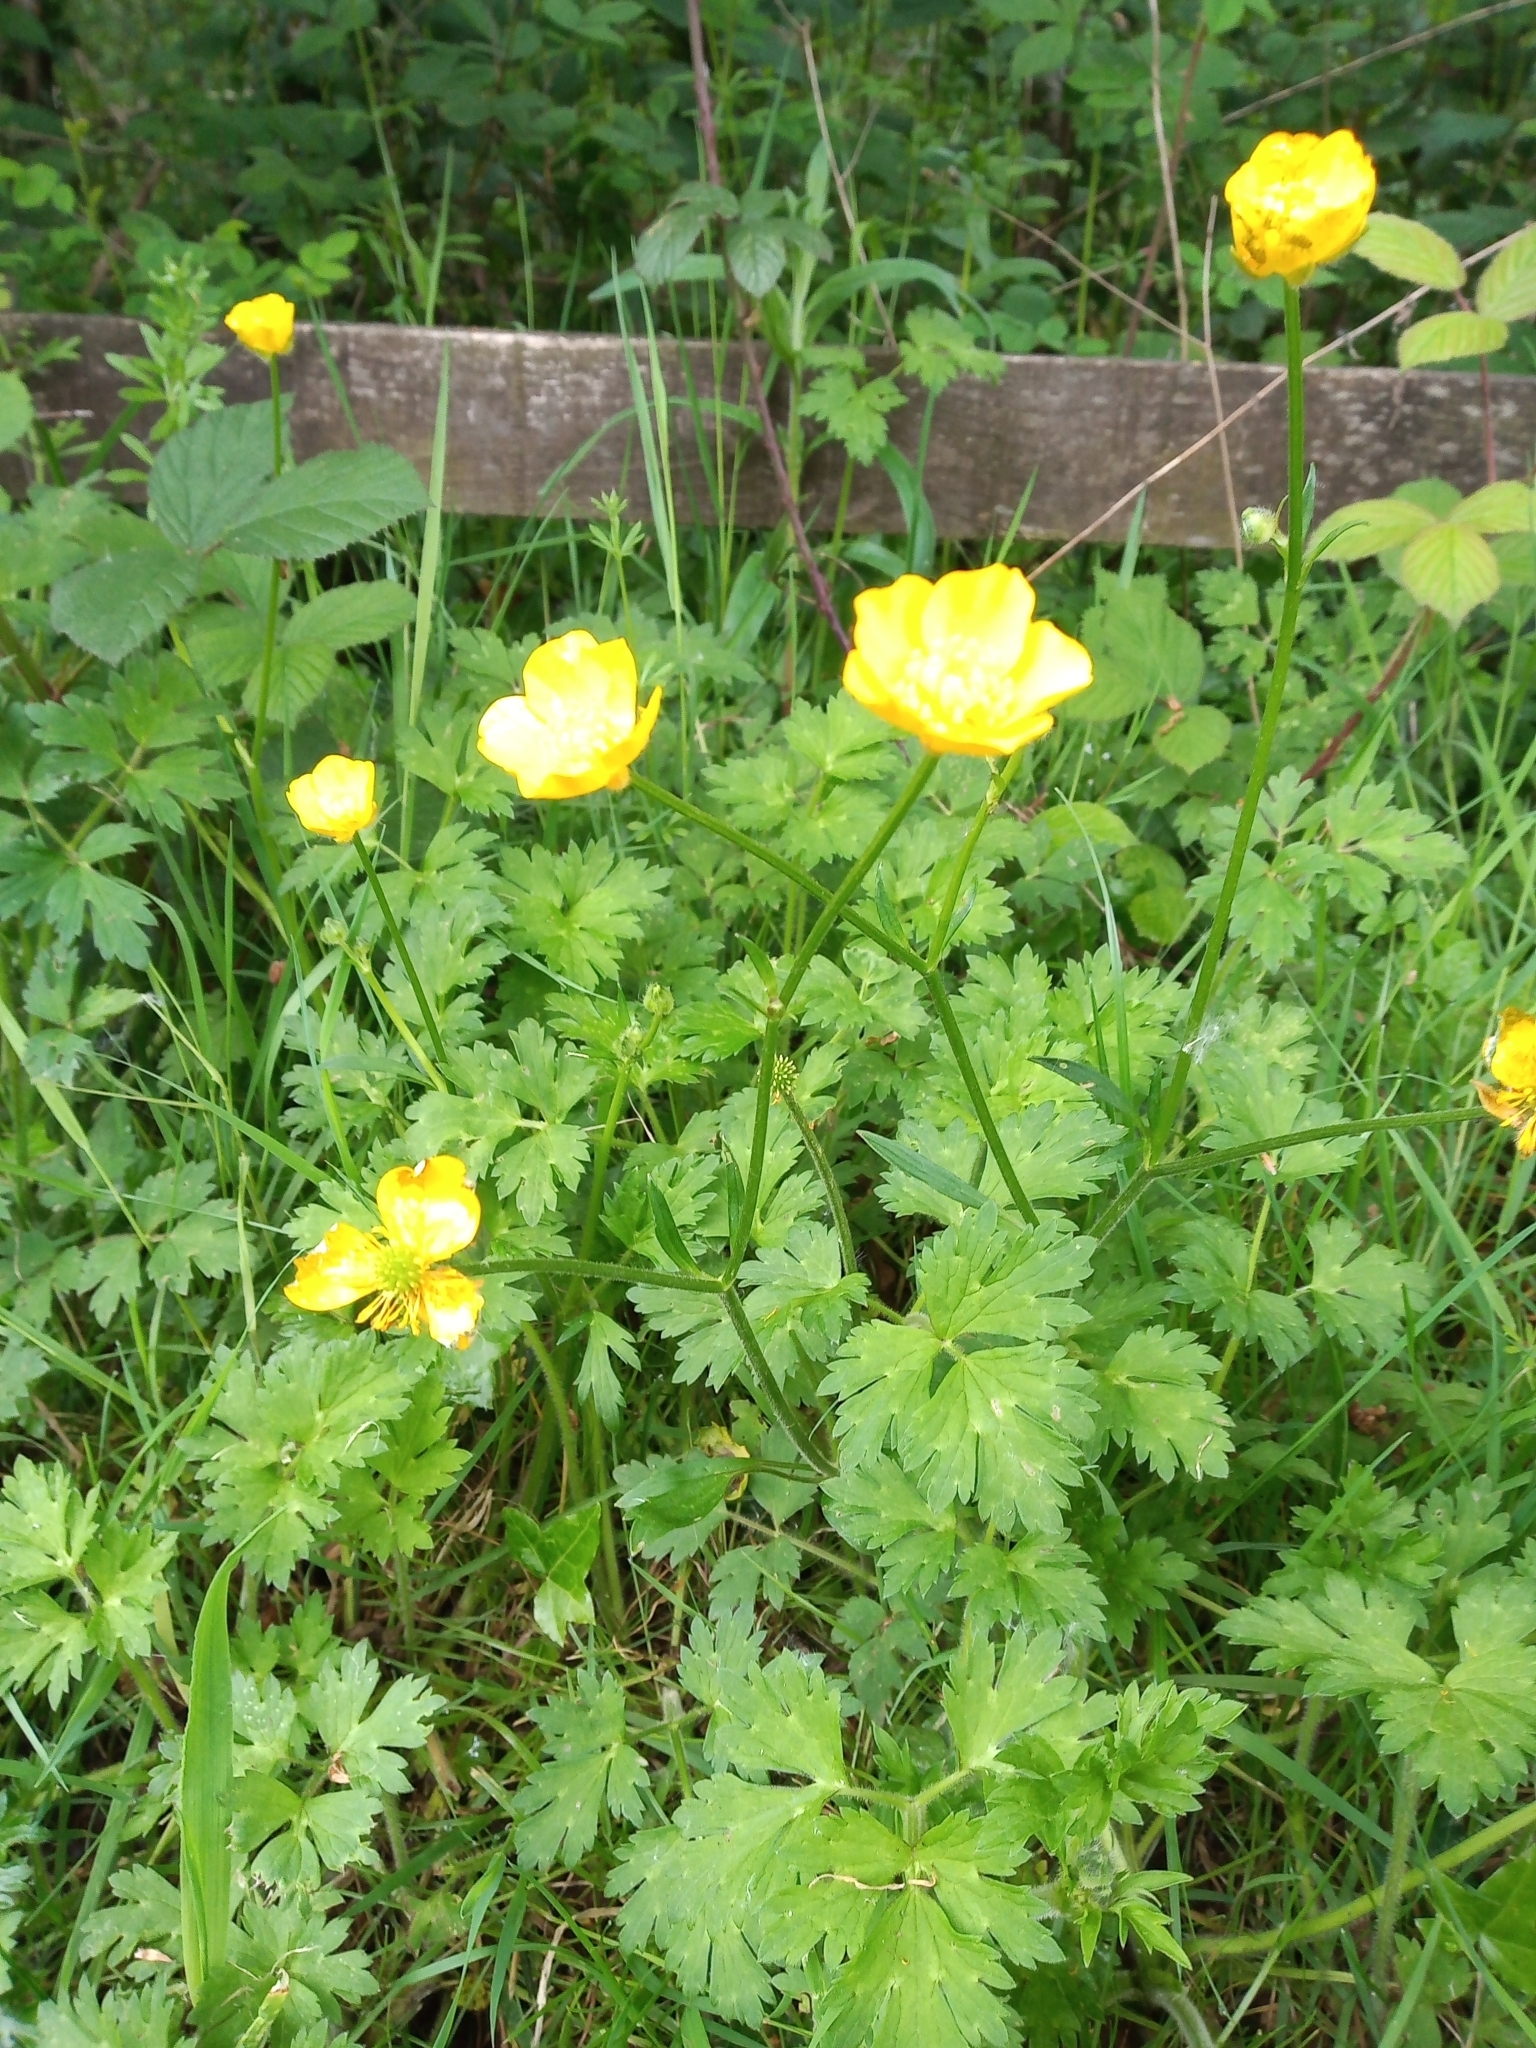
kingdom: Plantae
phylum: Tracheophyta
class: Magnoliopsida
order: Ranunculales
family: Ranunculaceae
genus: Ranunculus
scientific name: Ranunculus repens
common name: Creeping buttercup
